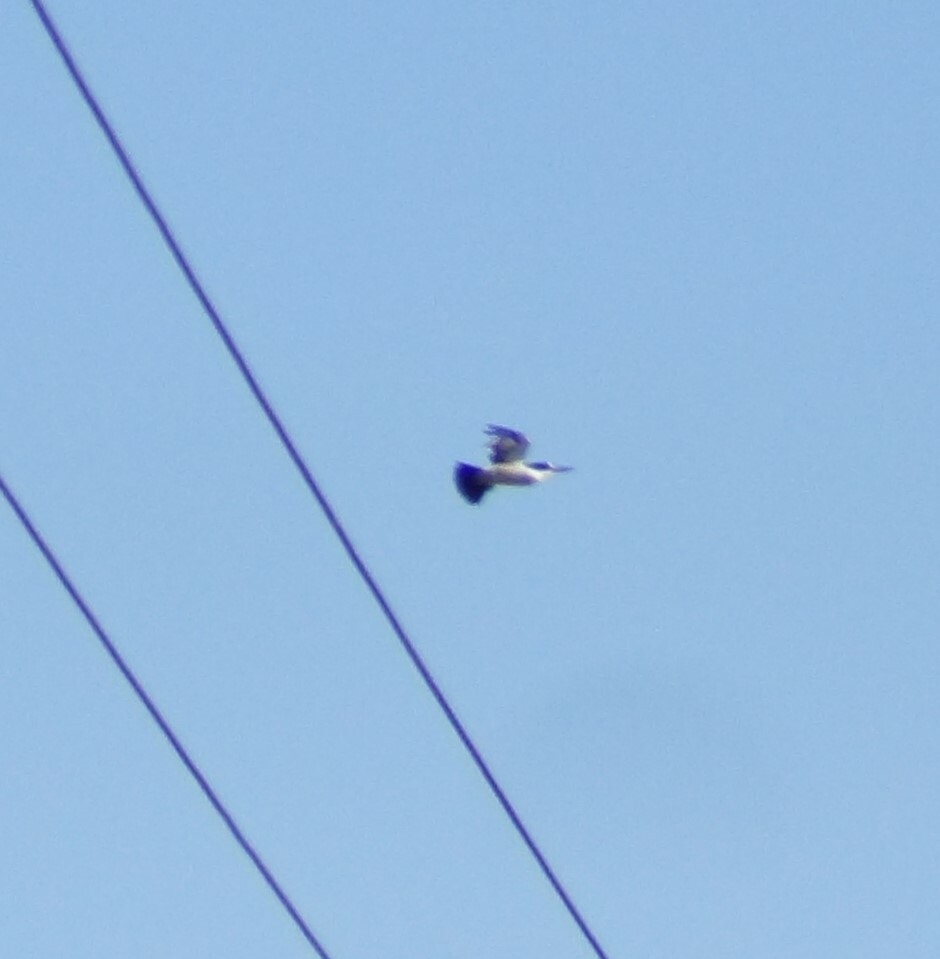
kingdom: Animalia
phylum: Chordata
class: Aves
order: Coraciiformes
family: Alcedinidae
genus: Todiramphus
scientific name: Todiramphus macleayii
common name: Forest kingfisher
